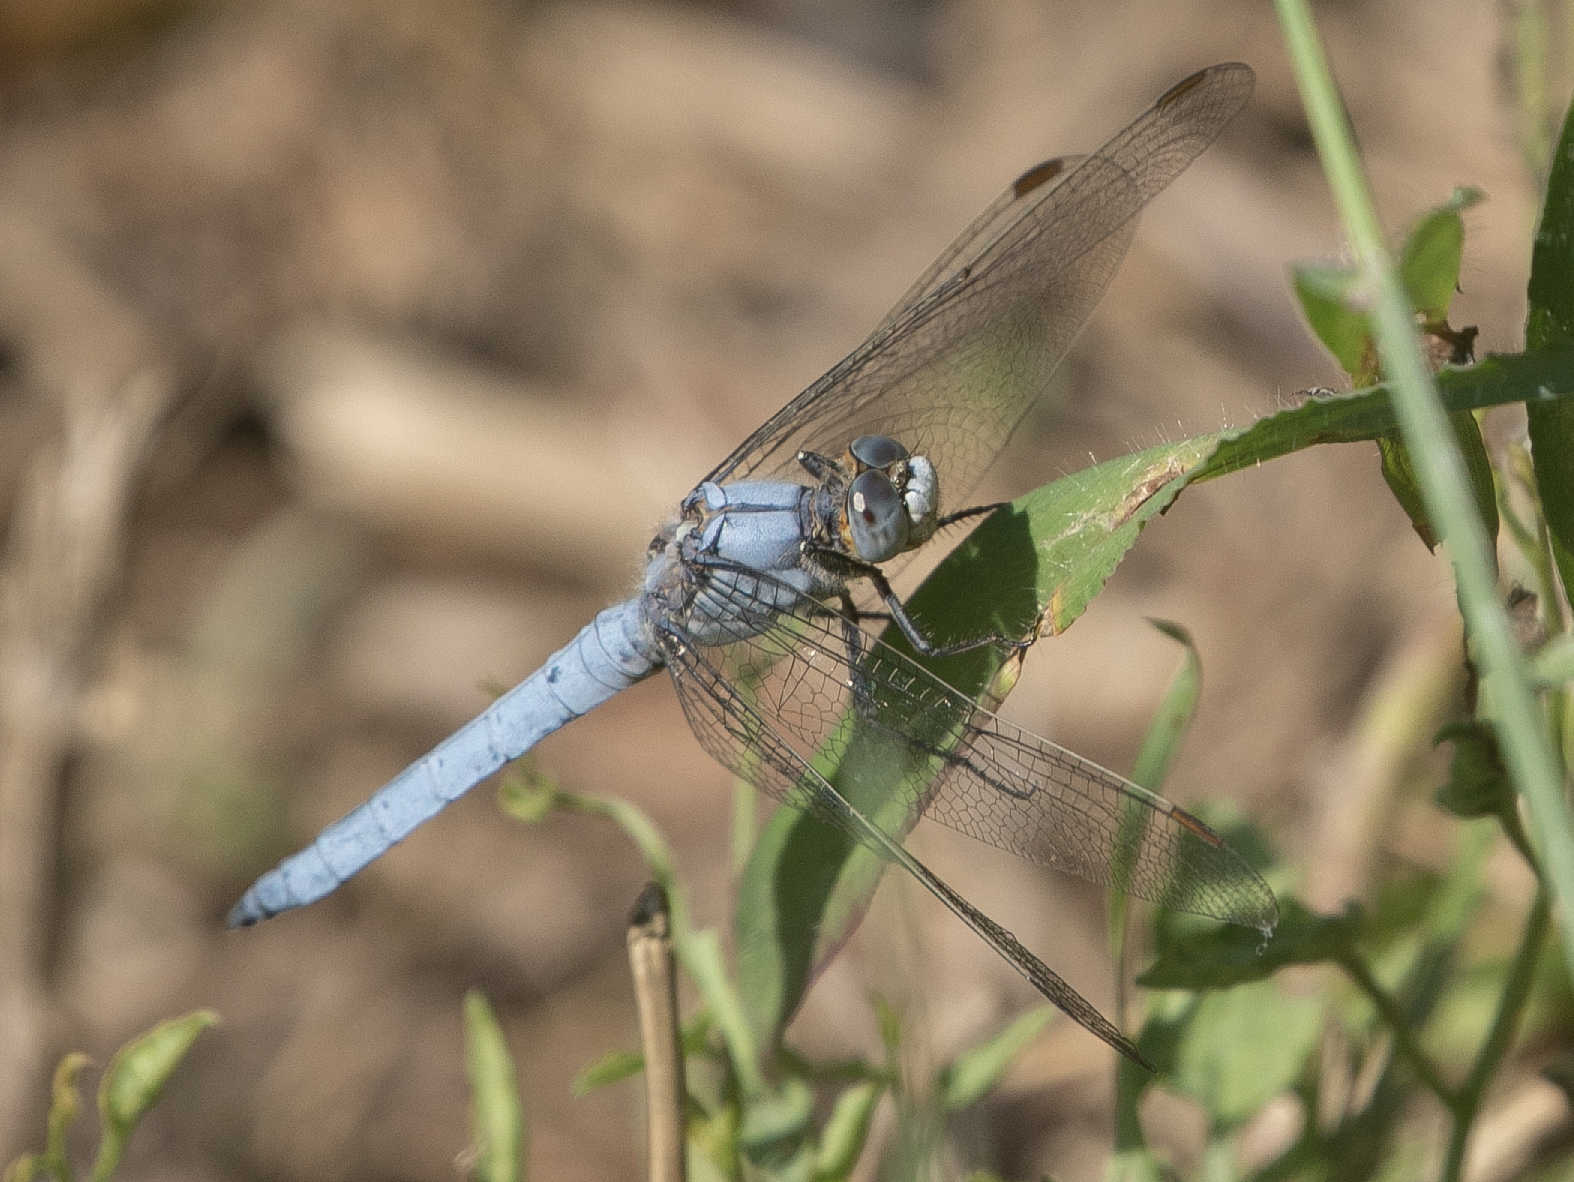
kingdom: Animalia
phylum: Arthropoda
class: Insecta
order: Odonata
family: Libellulidae
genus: Orthetrum
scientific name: Orthetrum brunneum
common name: Southern skimmer
